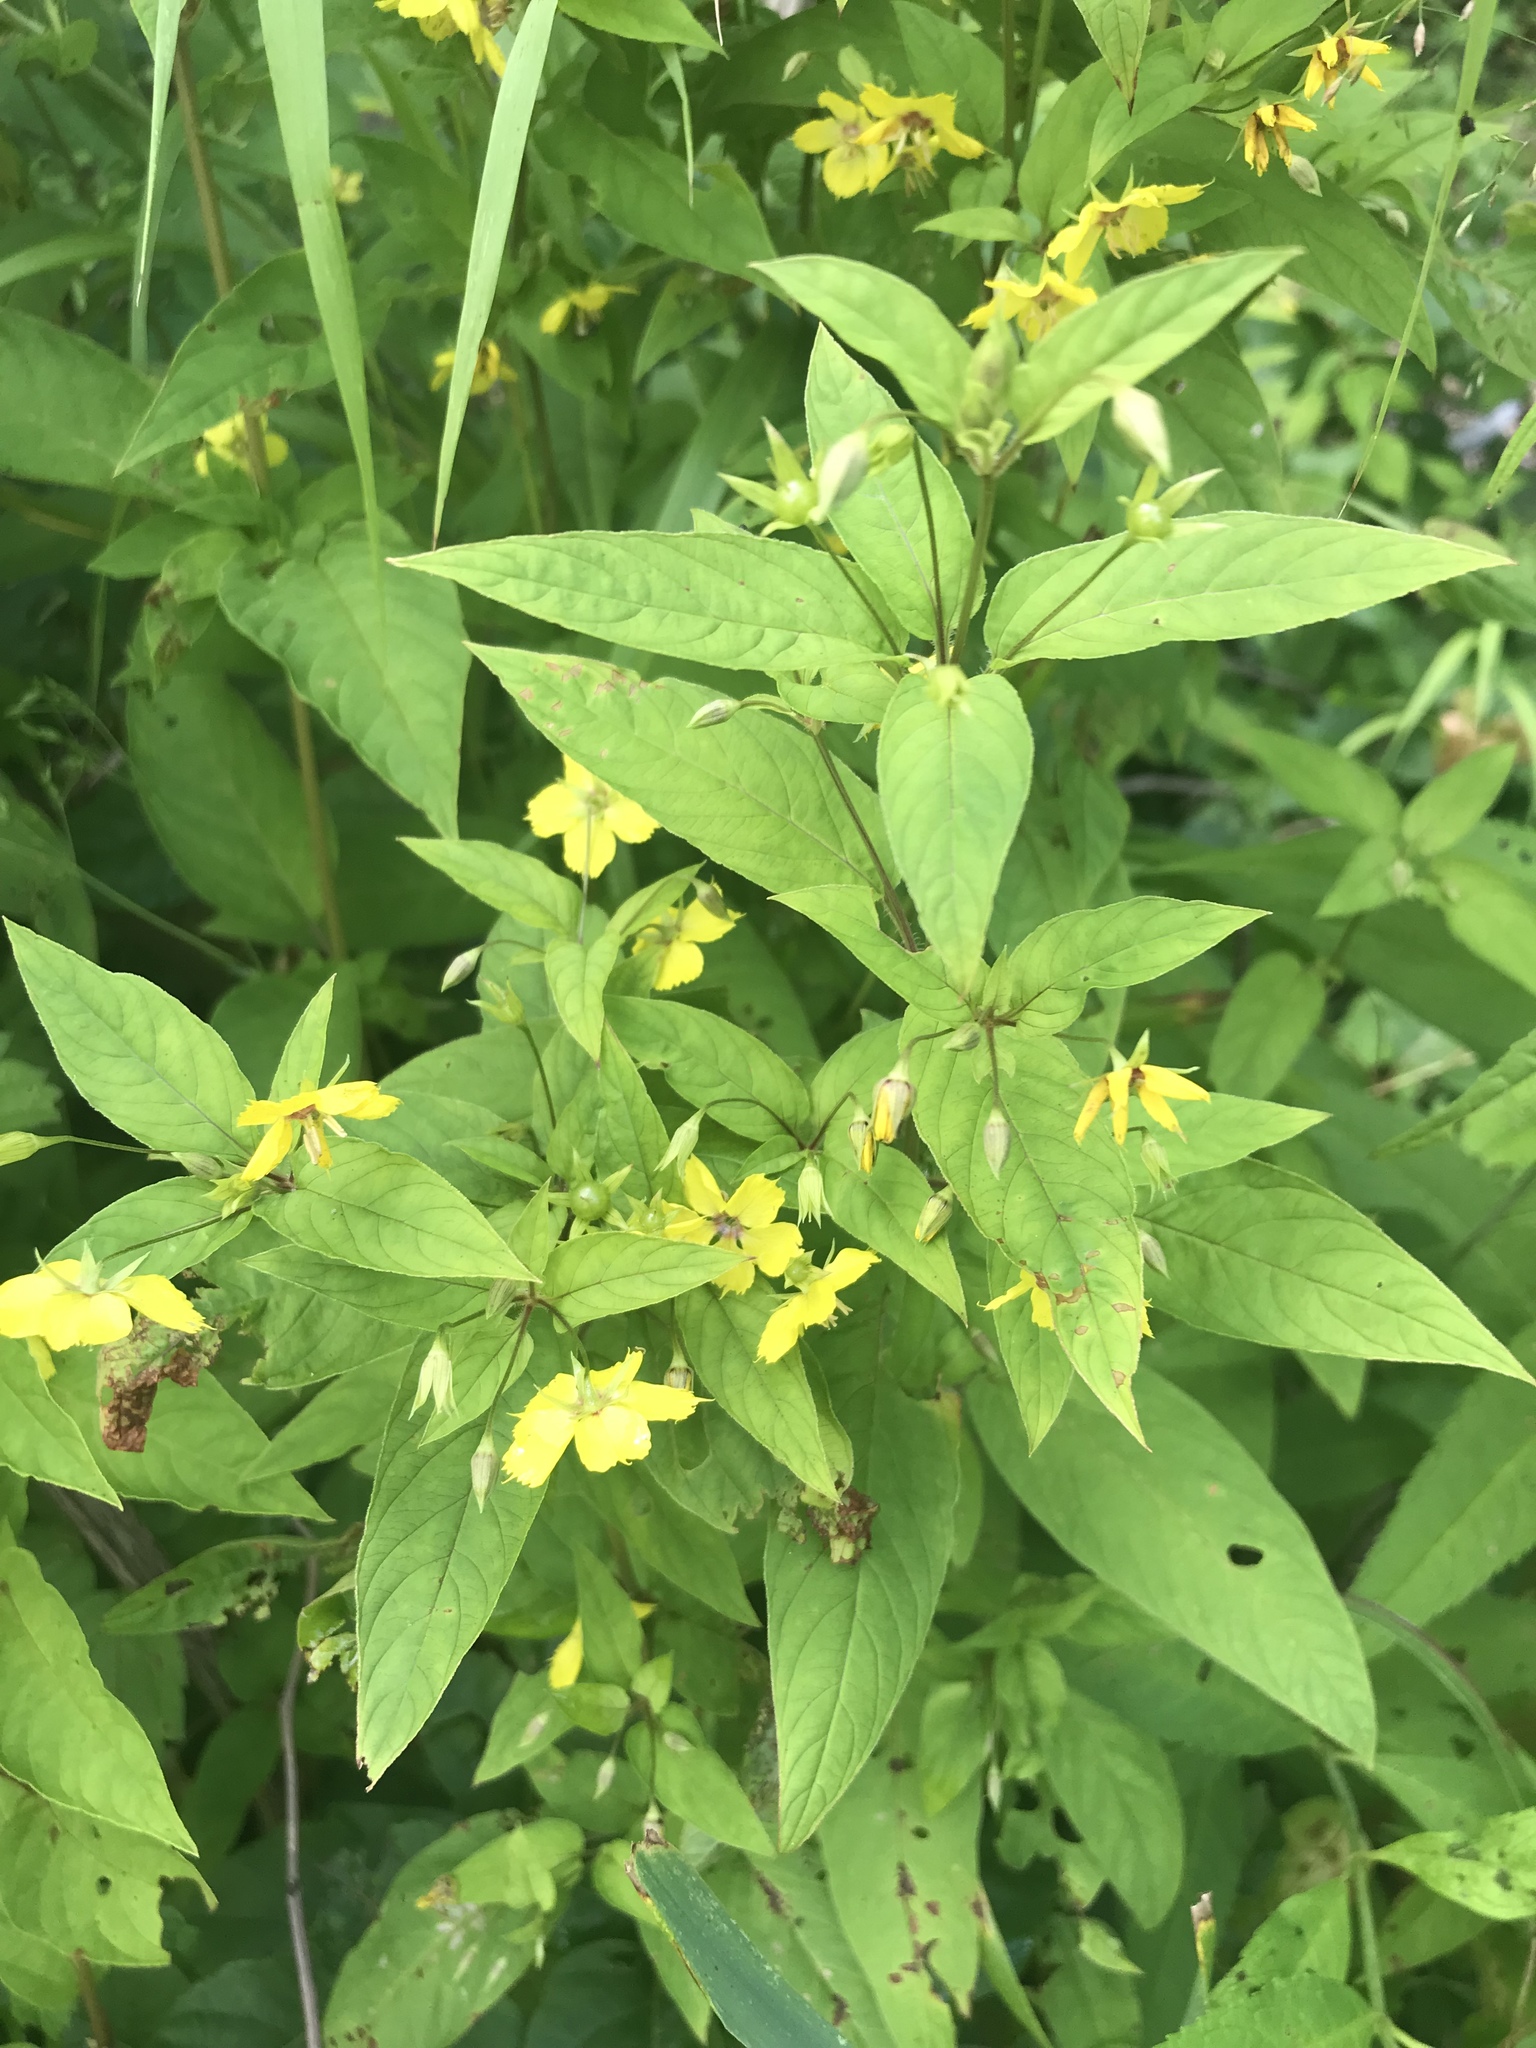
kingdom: Plantae
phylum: Tracheophyta
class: Magnoliopsida
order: Ericales
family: Primulaceae
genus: Lysimachia
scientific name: Lysimachia ciliata
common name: Fringed loosestrife
